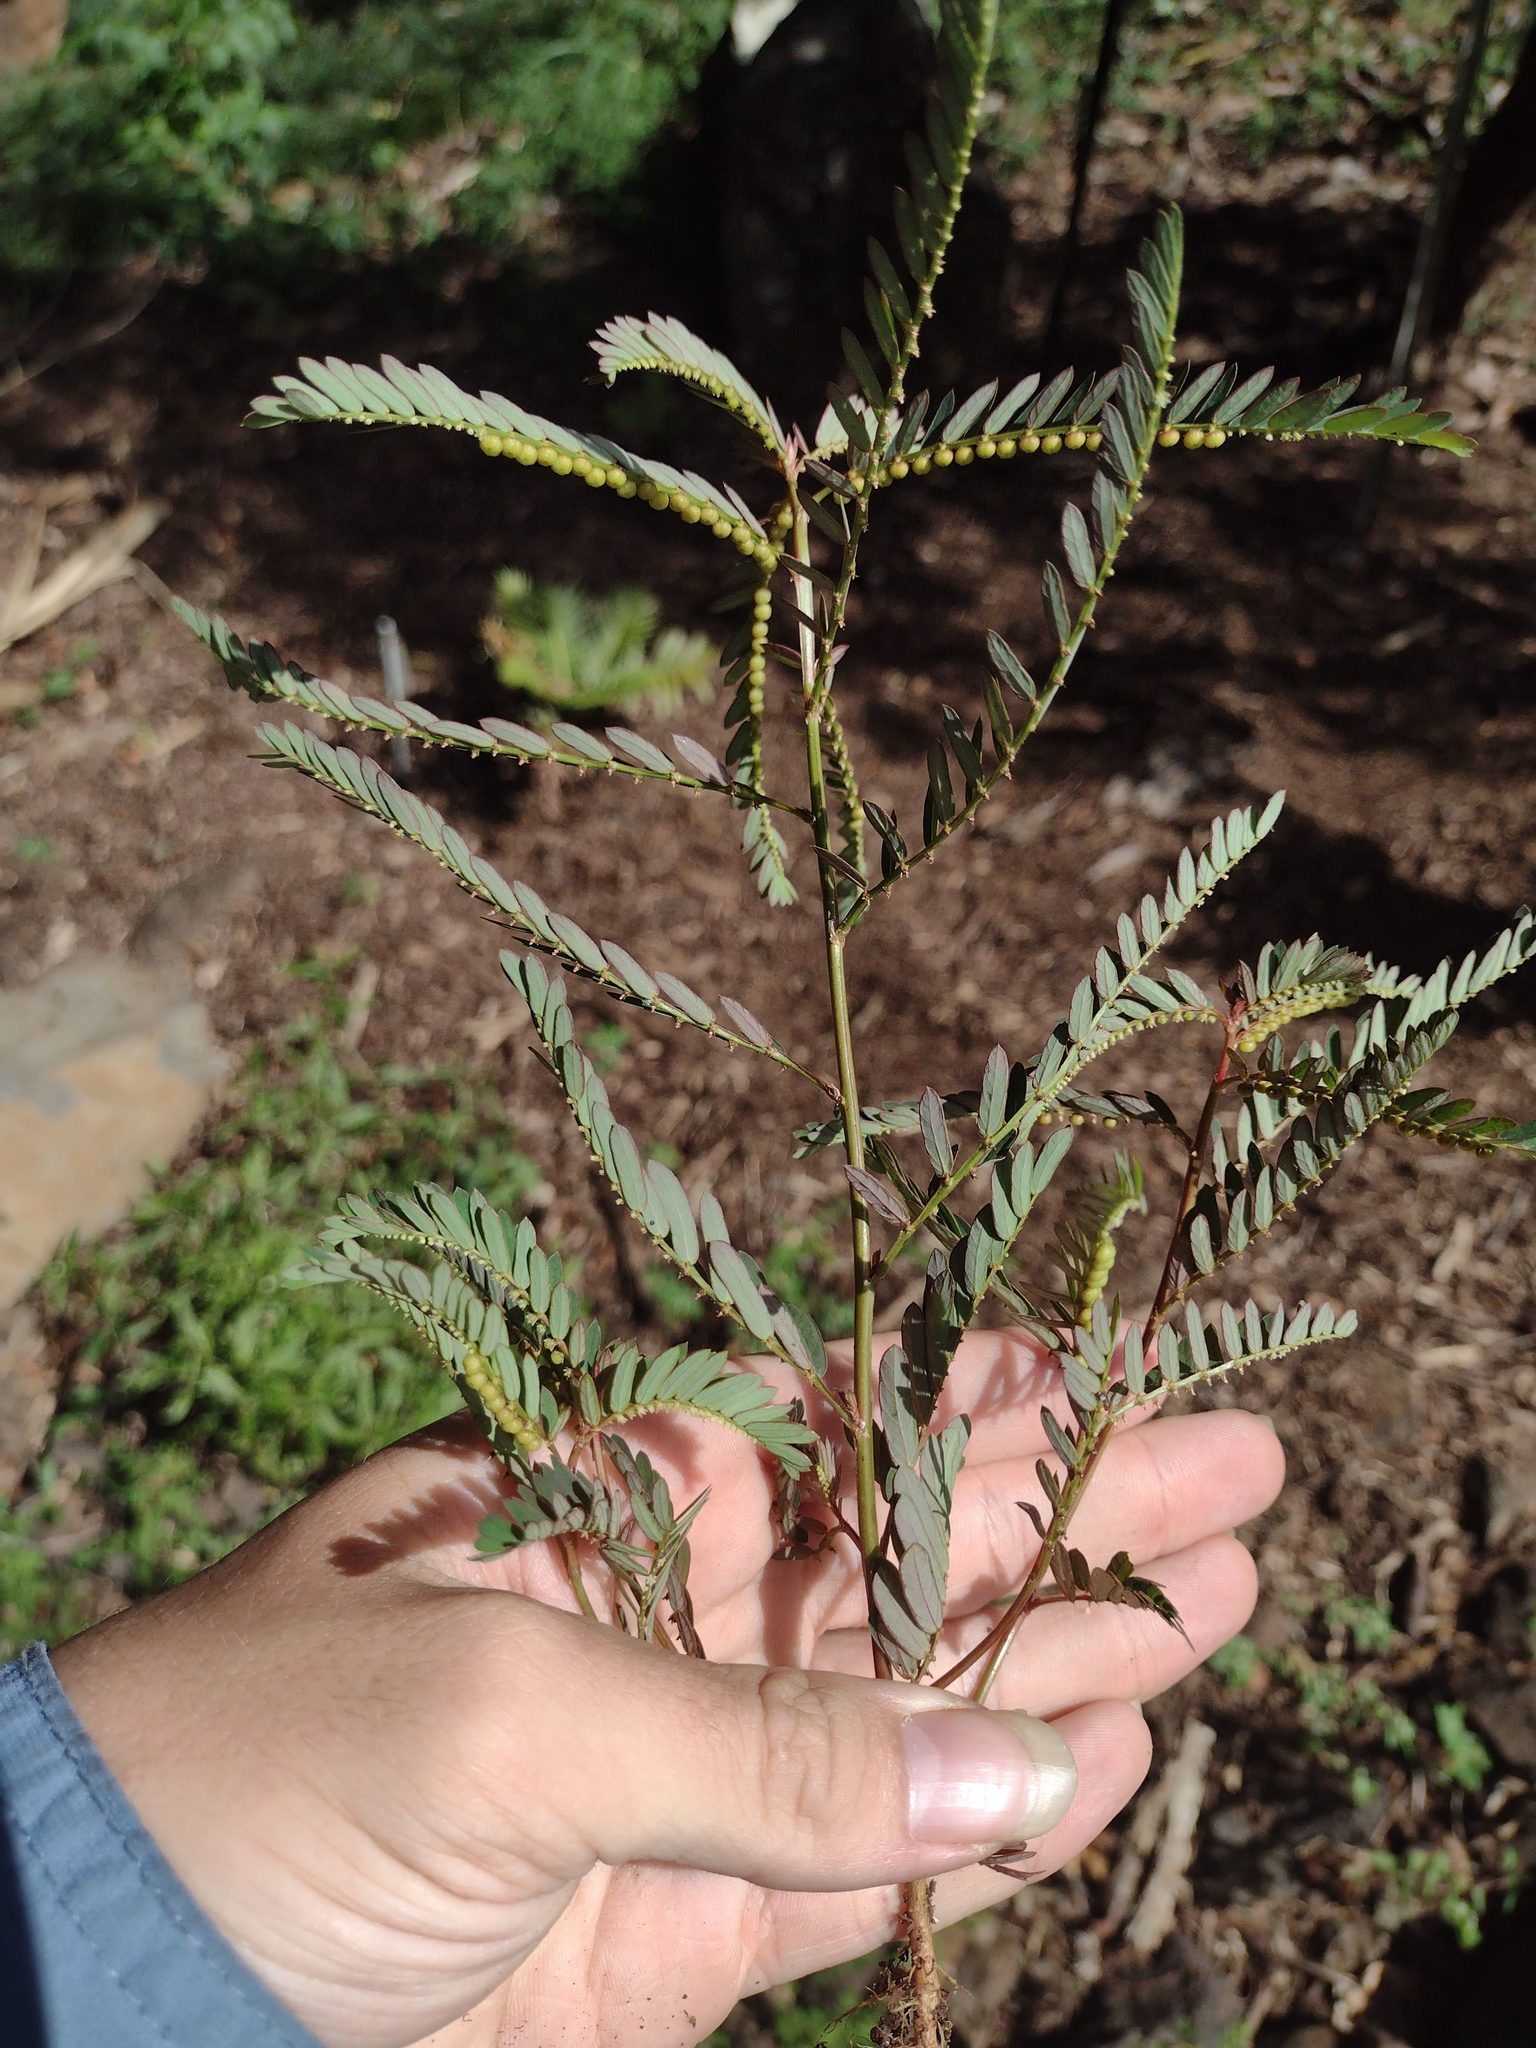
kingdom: Plantae
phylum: Tracheophyta
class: Magnoliopsida
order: Malpighiales
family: Phyllanthaceae
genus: Phyllanthus
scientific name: Phyllanthus urinaria
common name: Chamber bitter
